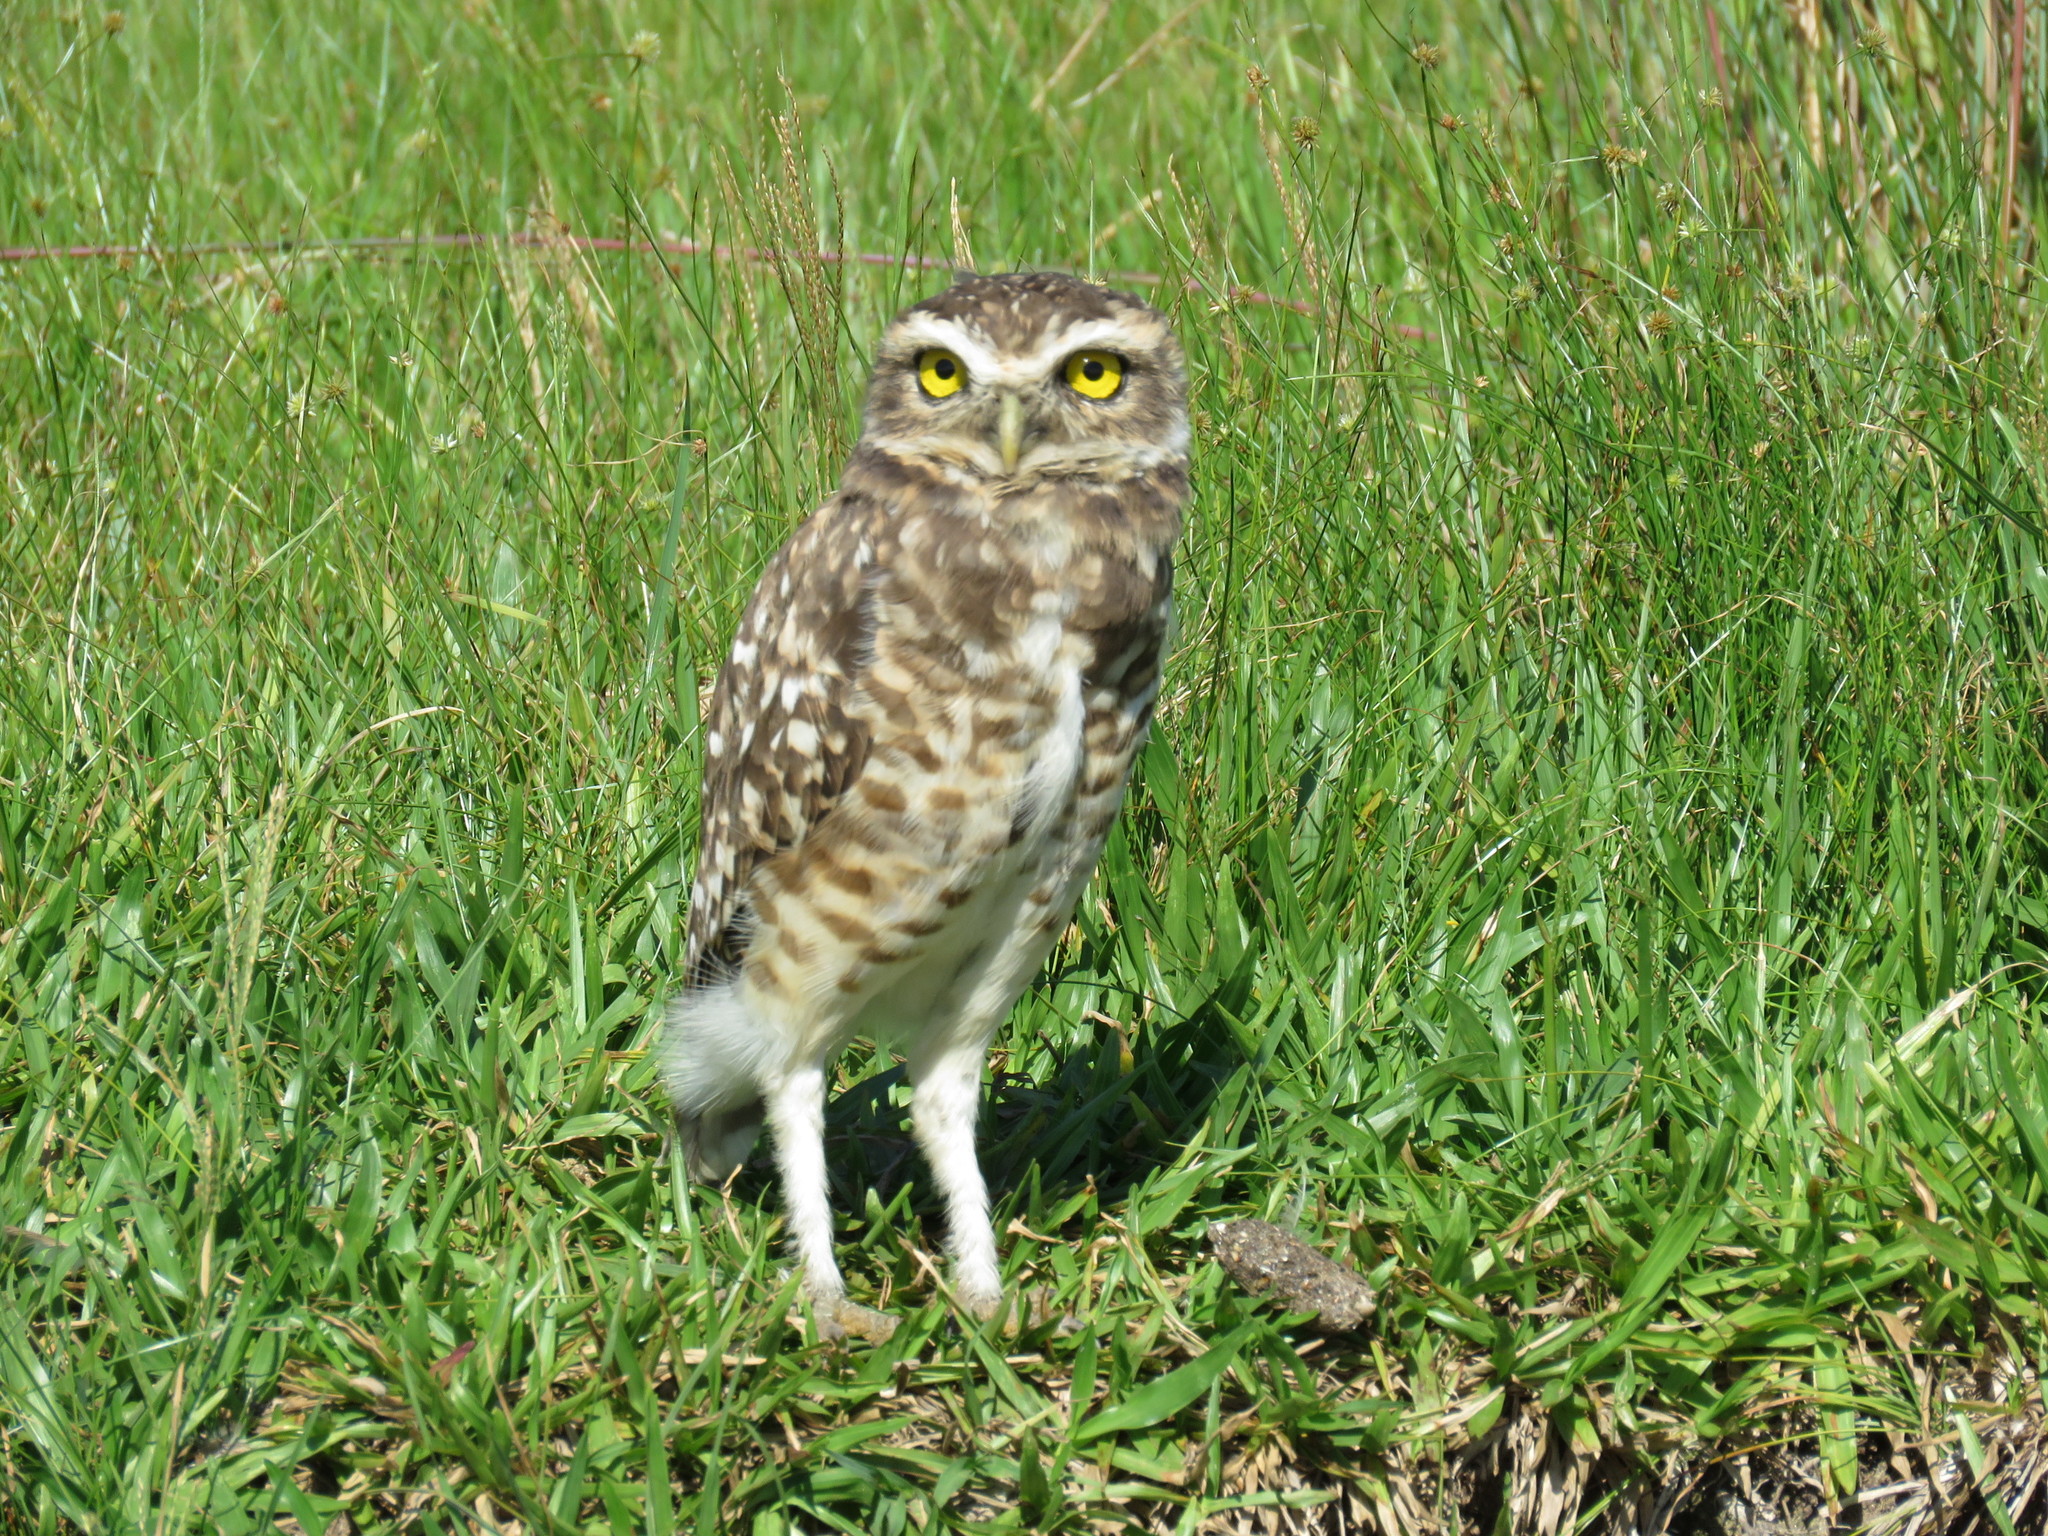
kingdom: Animalia
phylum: Chordata
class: Aves
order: Strigiformes
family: Strigidae
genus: Athene
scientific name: Athene cunicularia
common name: Burrowing owl
